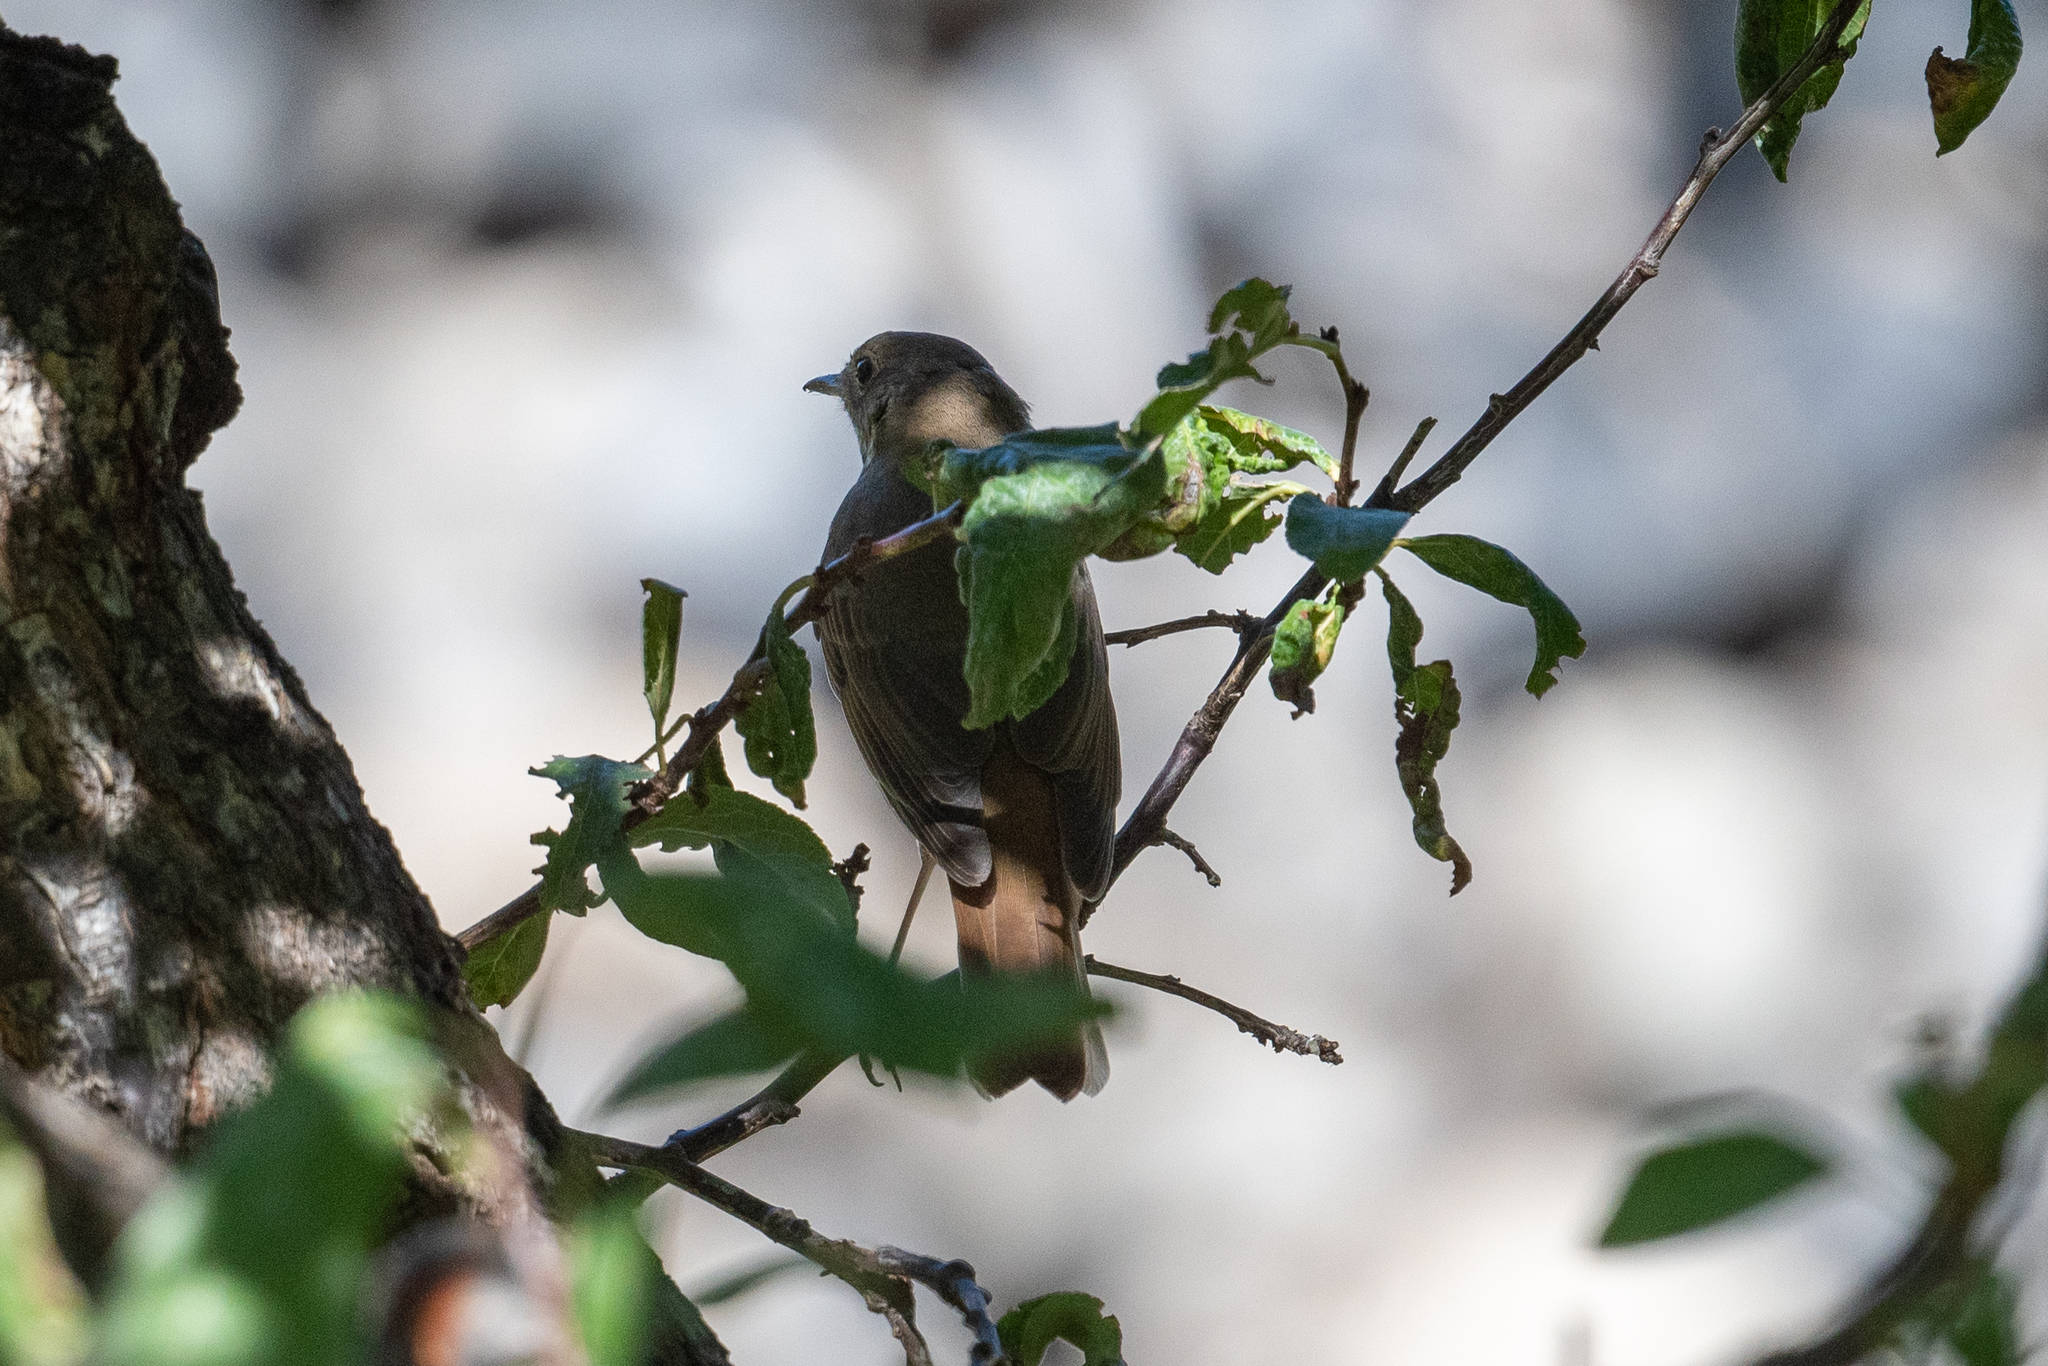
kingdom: Animalia
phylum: Chordata
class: Aves
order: Passeriformes
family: Turdidae
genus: Catharus
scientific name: Catharus guttatus
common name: Hermit thrush
